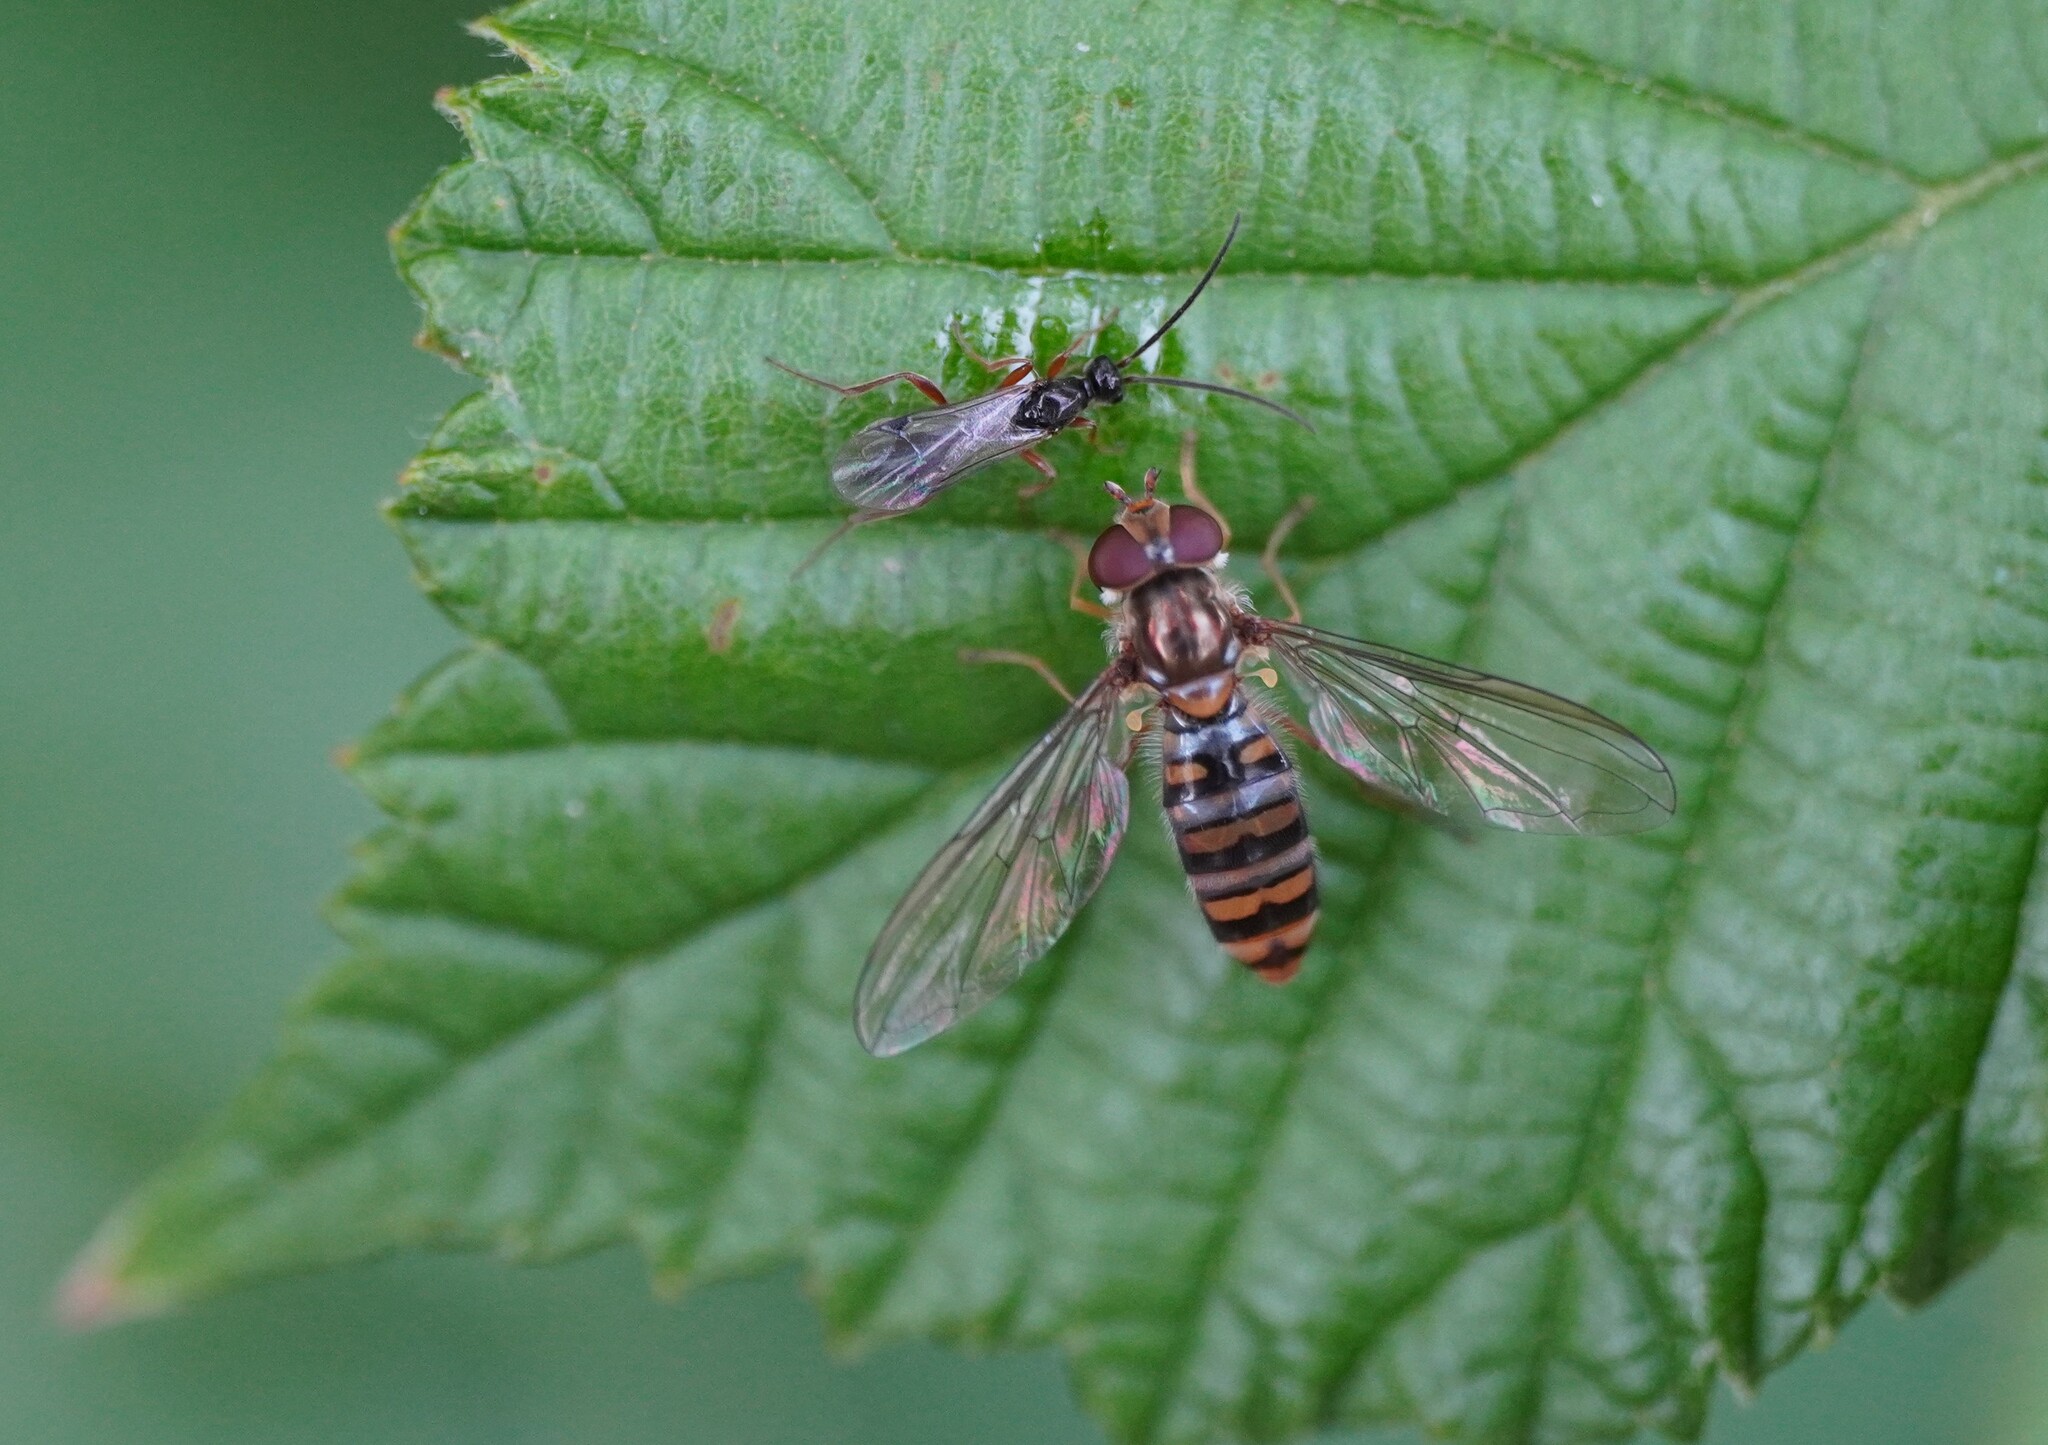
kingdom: Animalia
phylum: Arthropoda
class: Insecta
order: Diptera
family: Syrphidae
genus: Episyrphus
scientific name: Episyrphus balteatus
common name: Marmalade hoverfly
